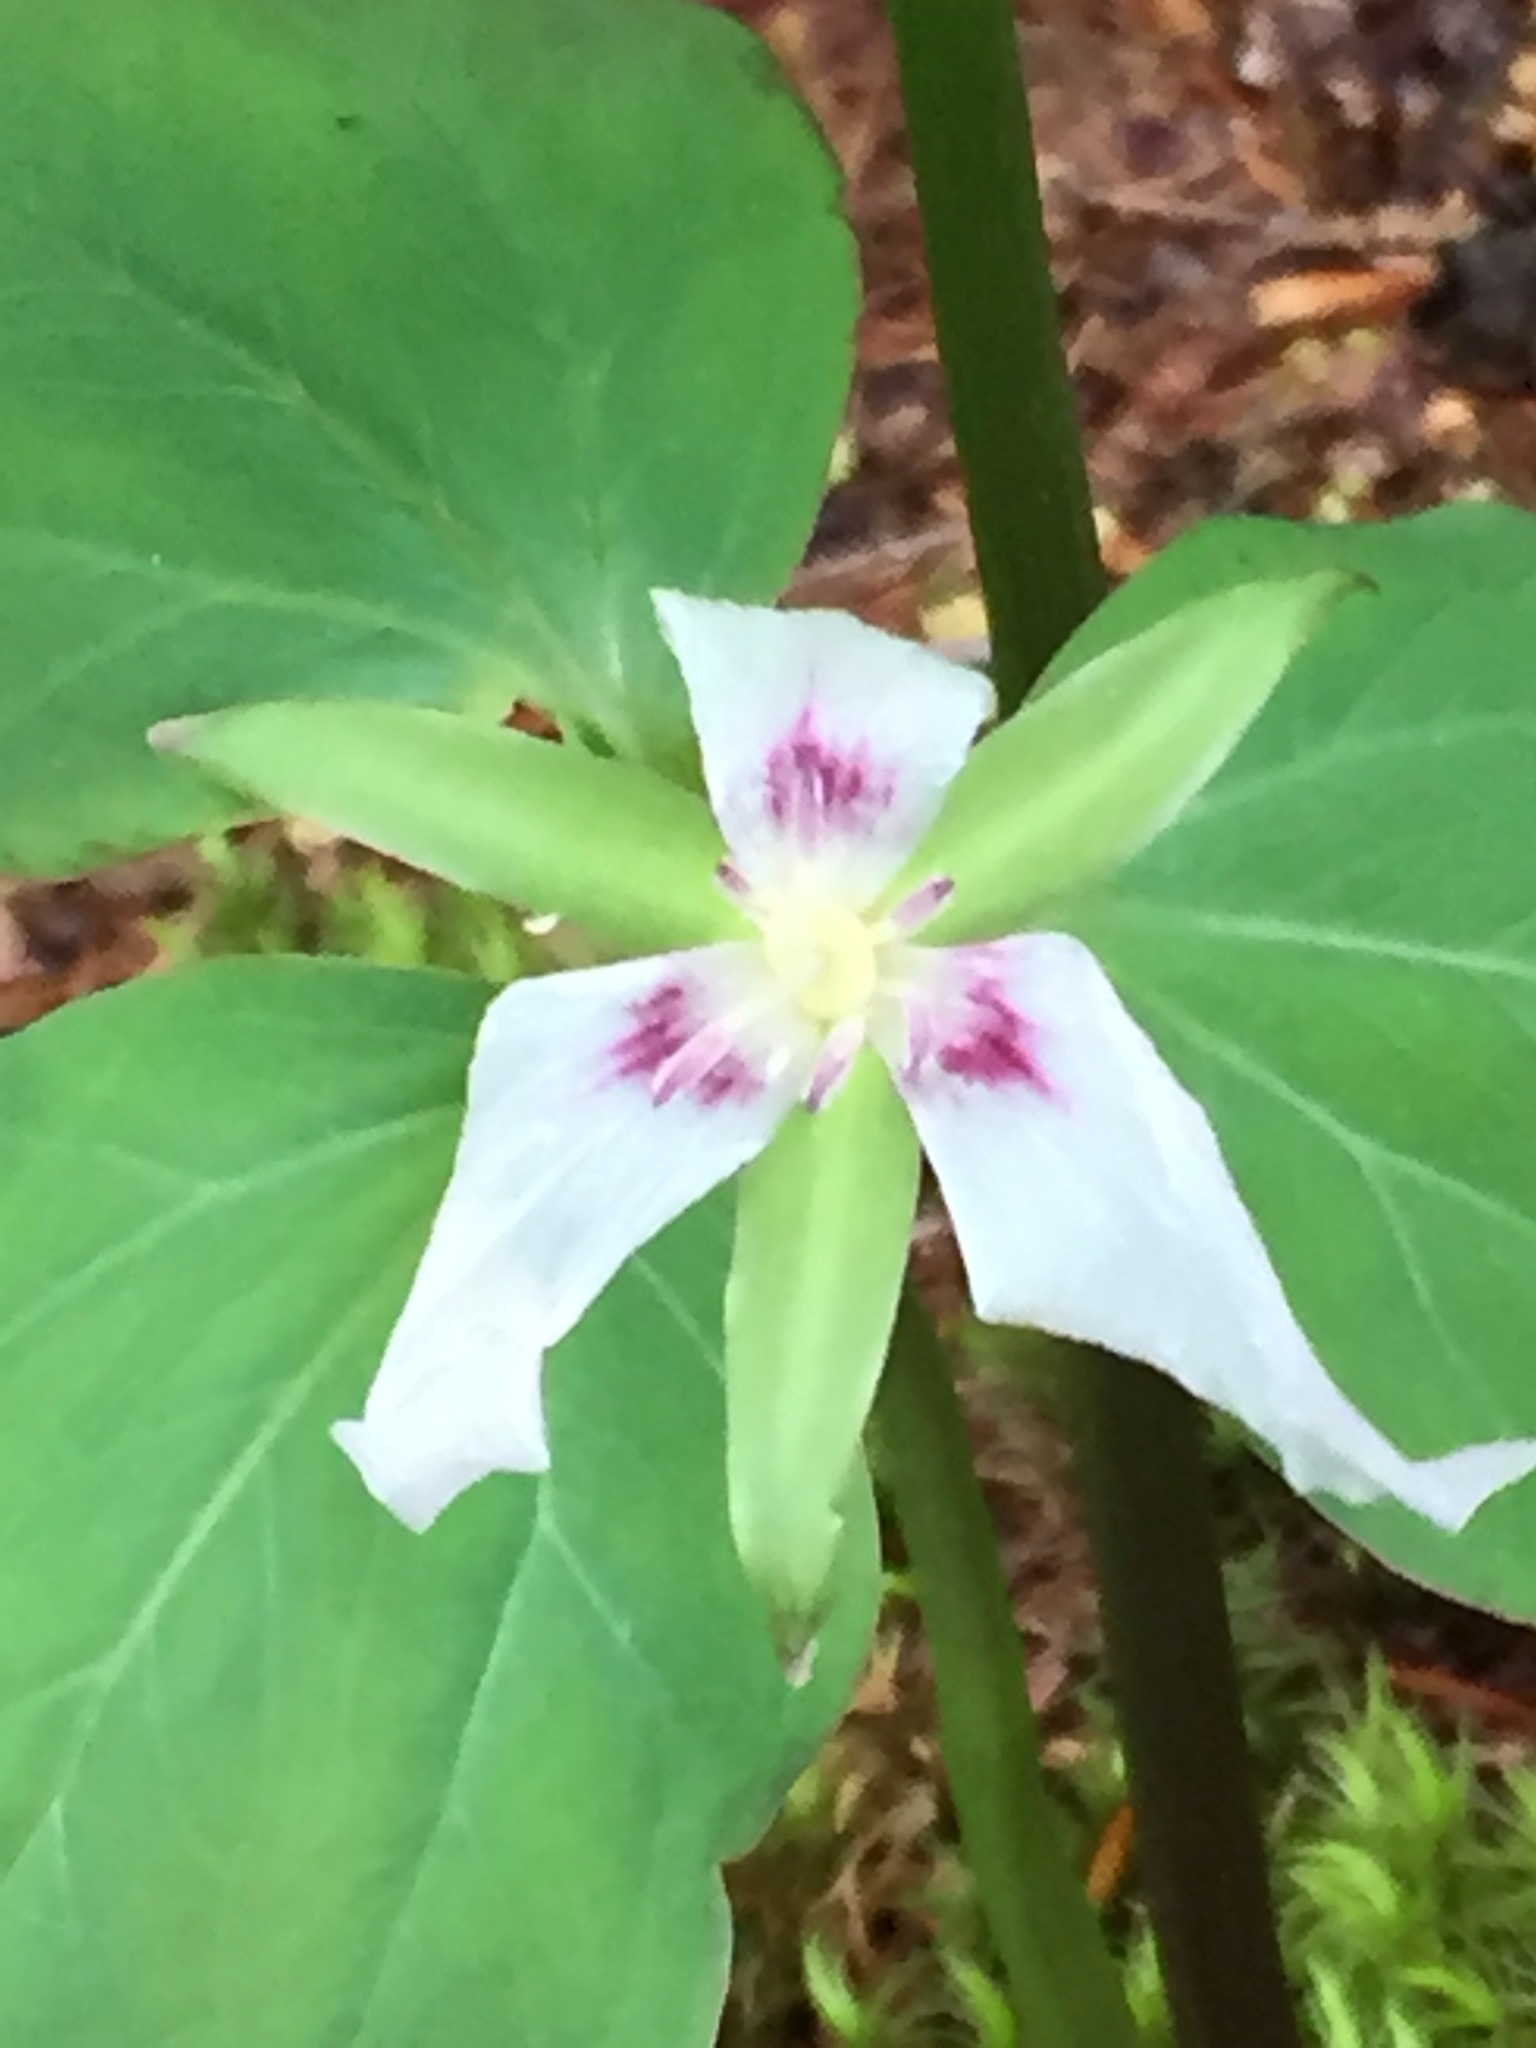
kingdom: Plantae
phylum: Tracheophyta
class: Liliopsida
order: Liliales
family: Melanthiaceae
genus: Trillium
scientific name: Trillium undulatum
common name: Paint trillium
